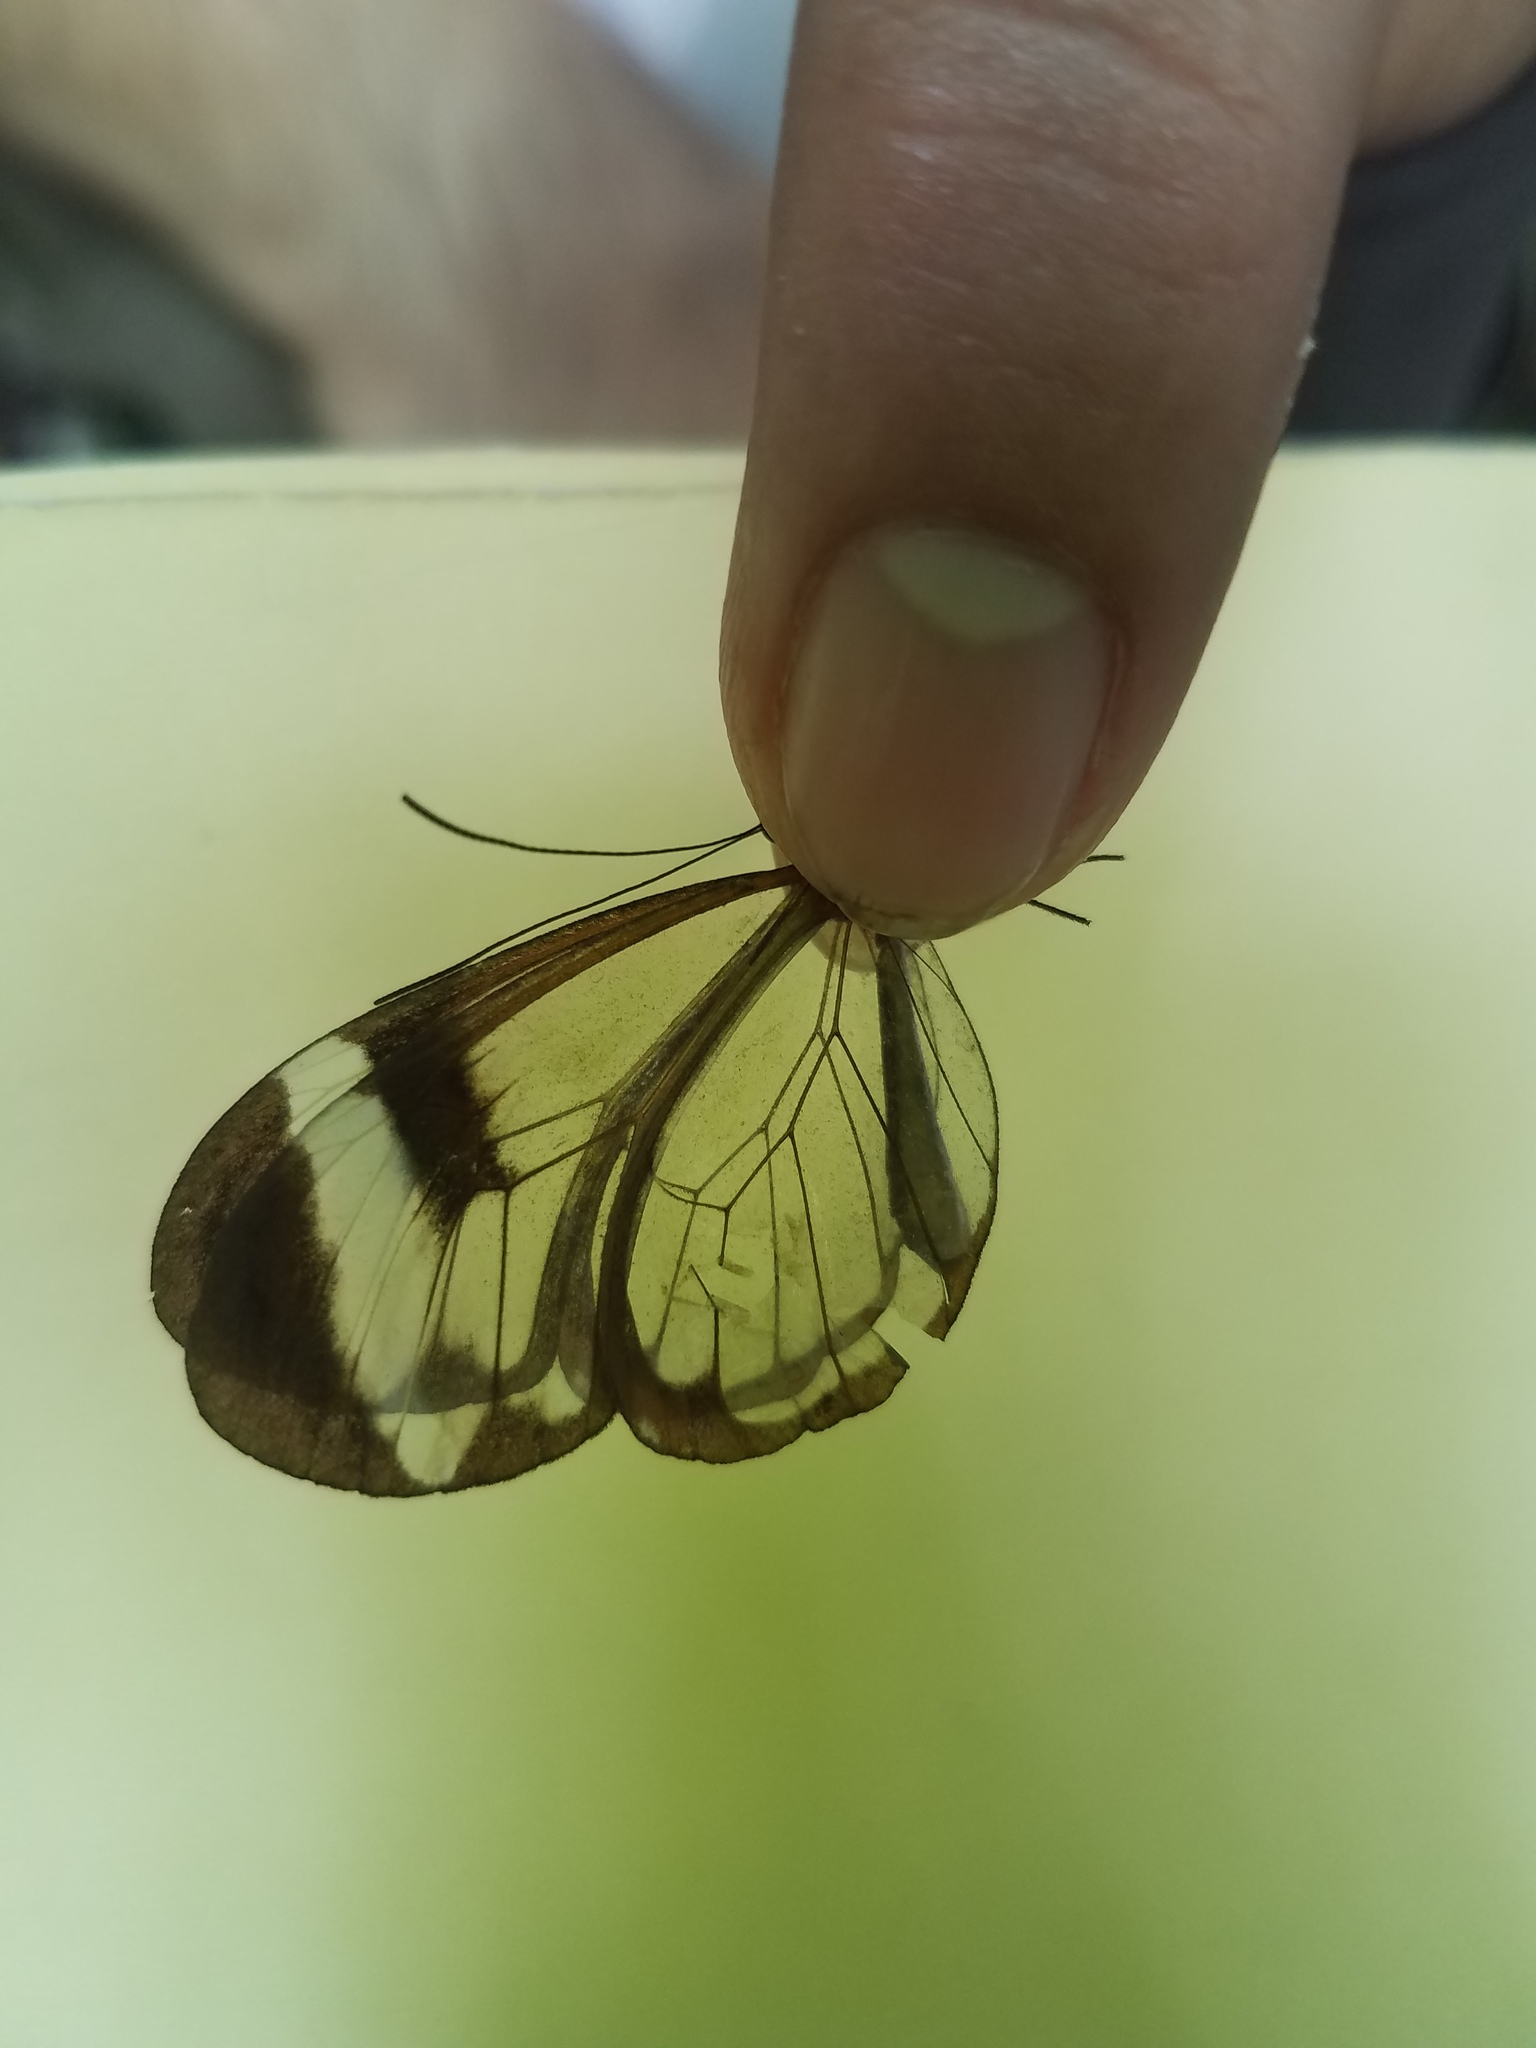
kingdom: Animalia
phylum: Arthropoda
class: Insecta
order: Lepidoptera
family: Nymphalidae
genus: Greta
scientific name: Greta morgane
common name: Thick-tipped greta
